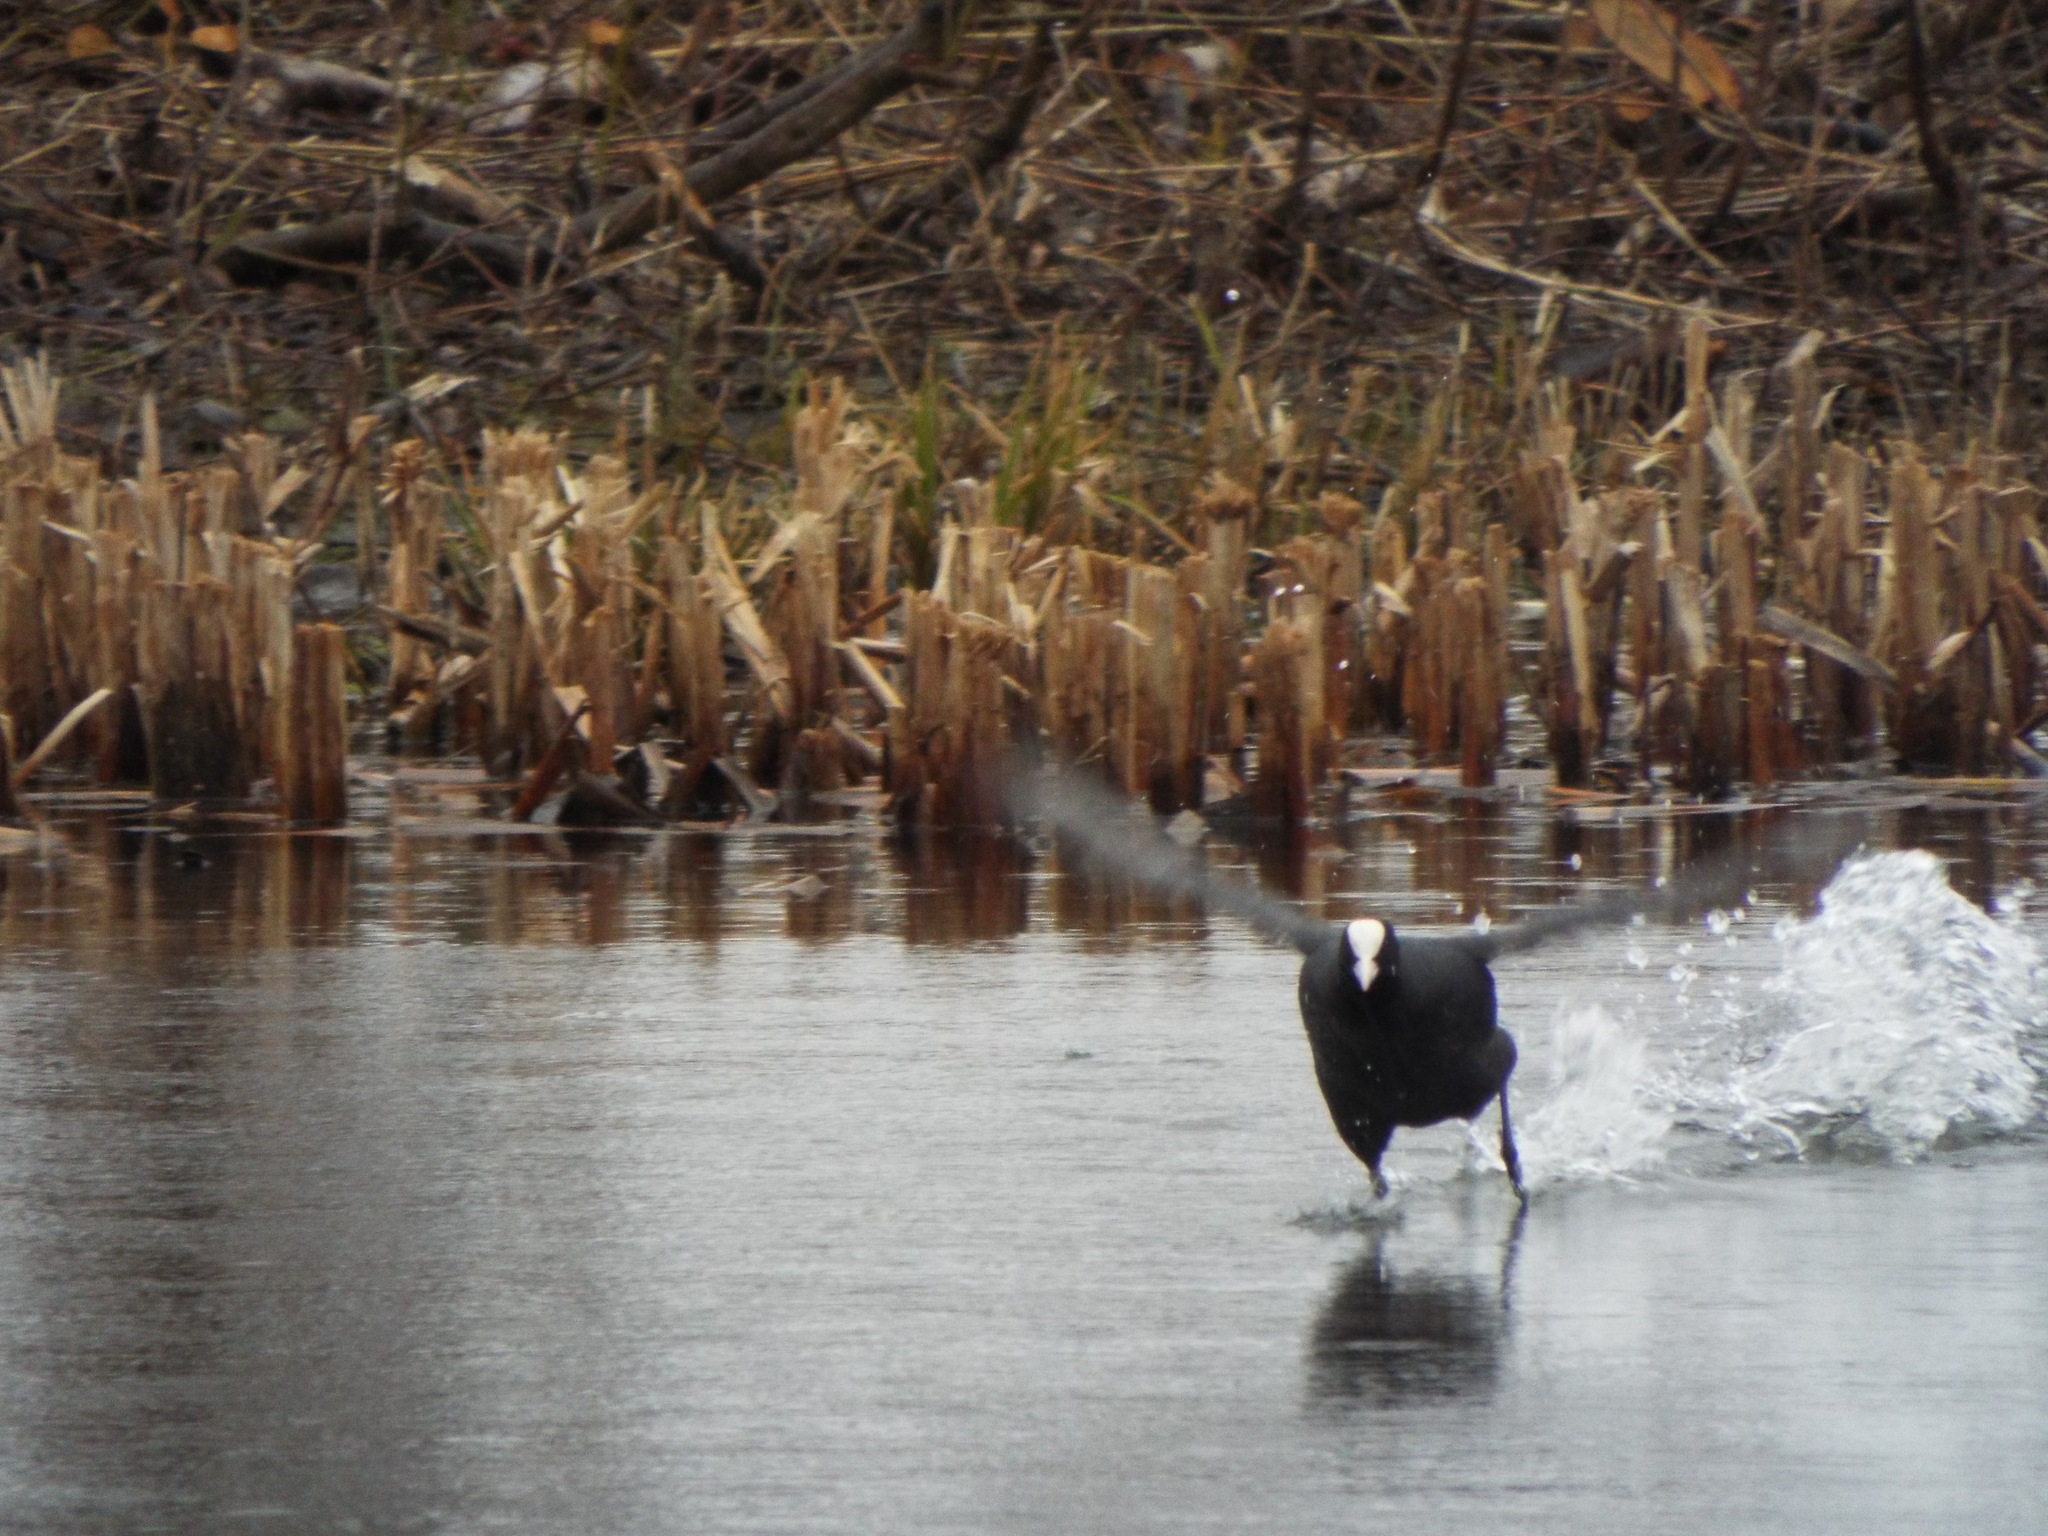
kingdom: Animalia
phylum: Chordata
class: Aves
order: Gruiformes
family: Rallidae
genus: Fulica
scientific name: Fulica atra
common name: Eurasian coot
